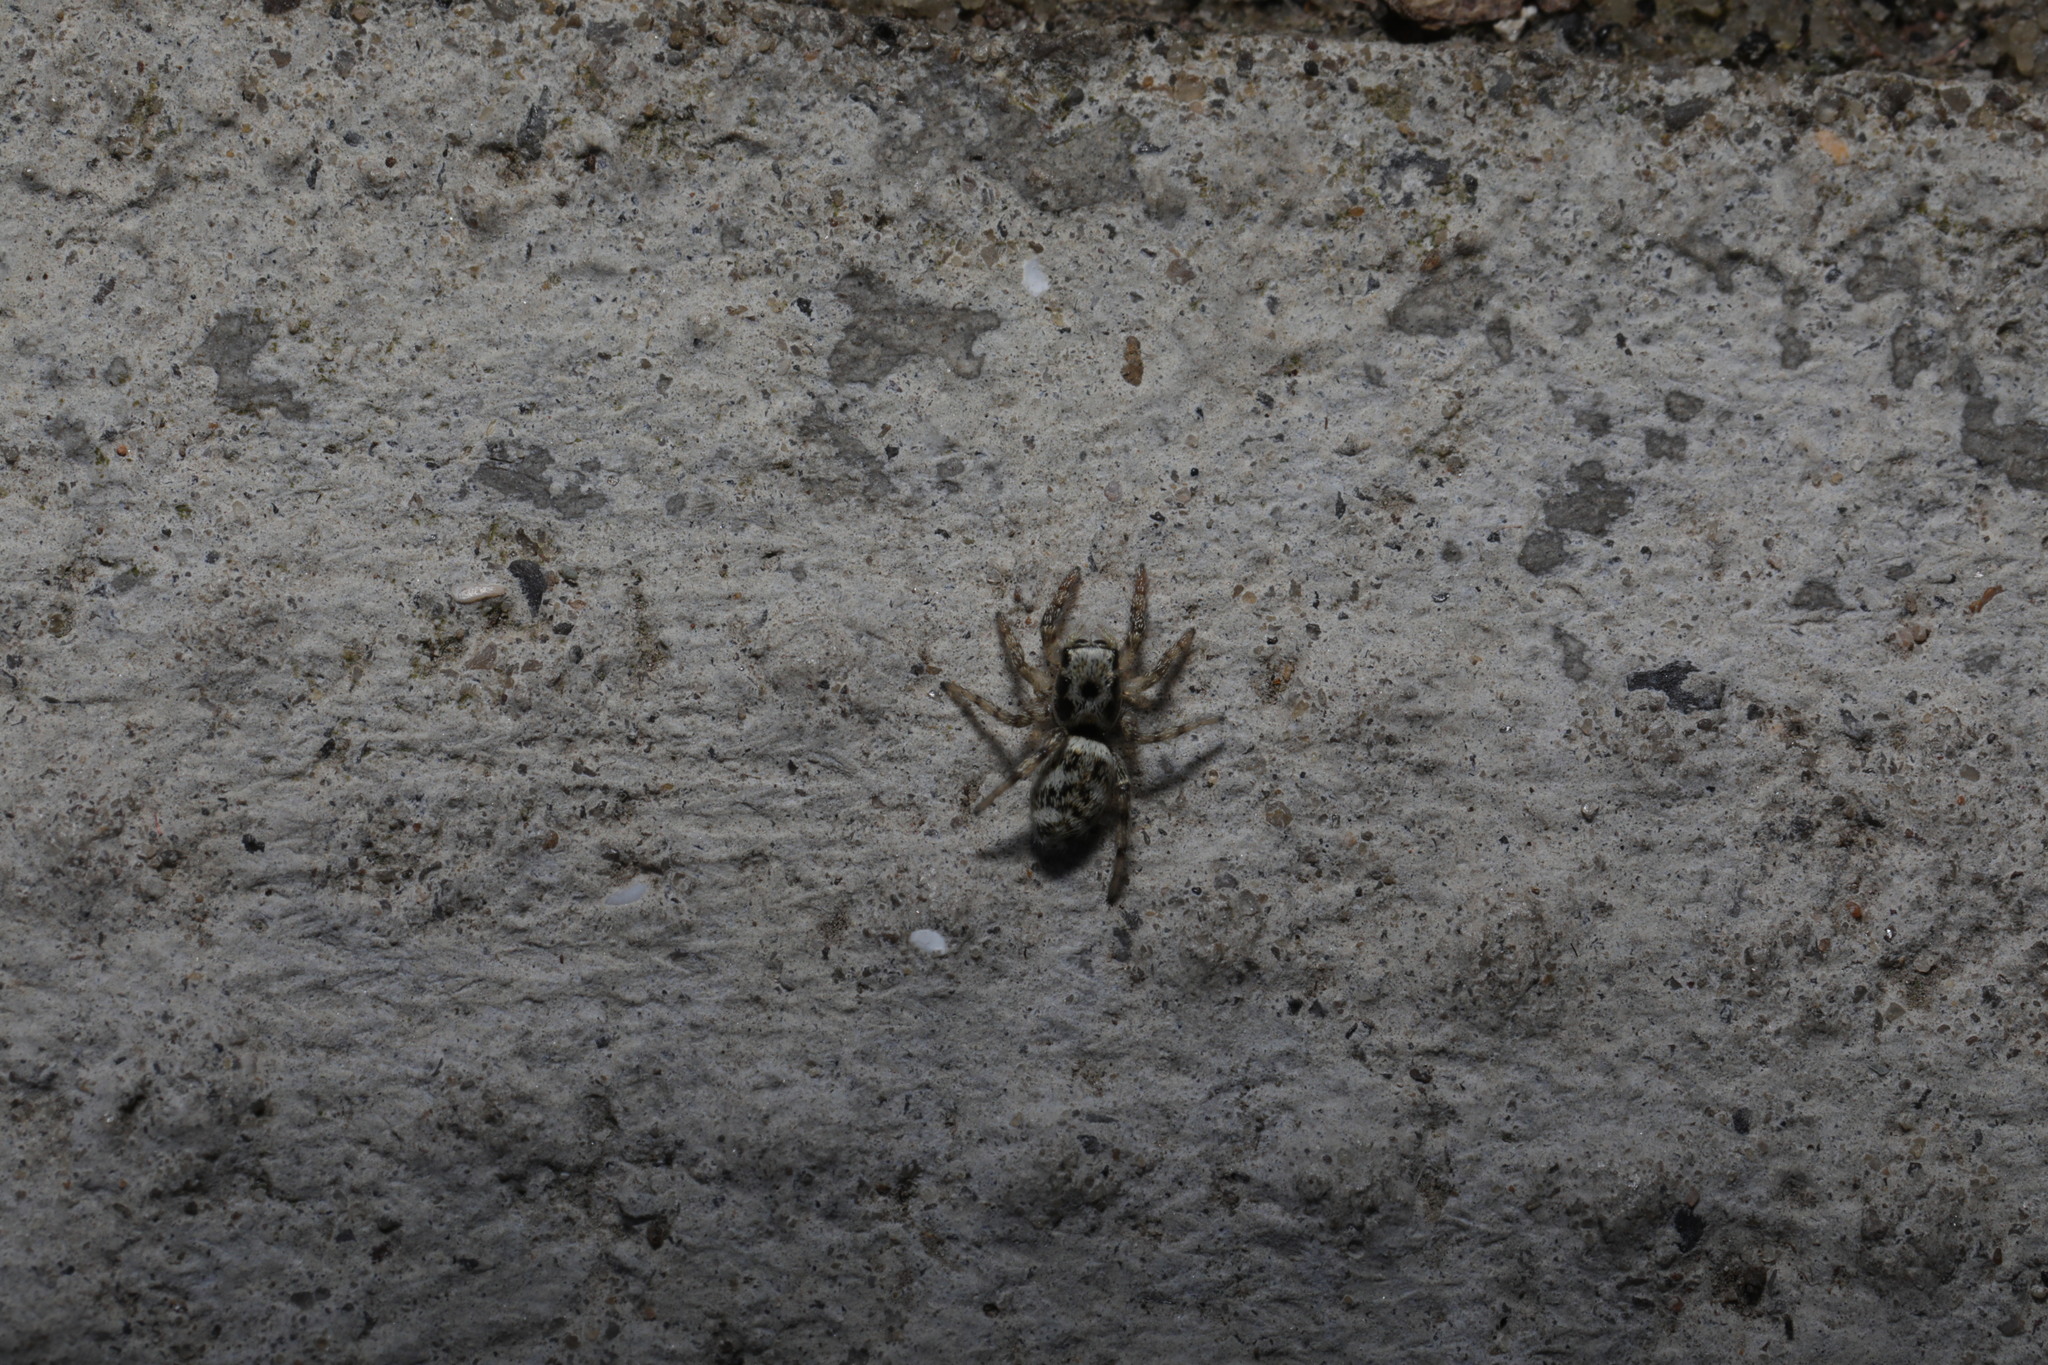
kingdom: Animalia
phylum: Arthropoda
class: Arachnida
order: Araneae
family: Salticidae
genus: Salticus
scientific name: Salticus scenicus
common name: Zebra jumper
